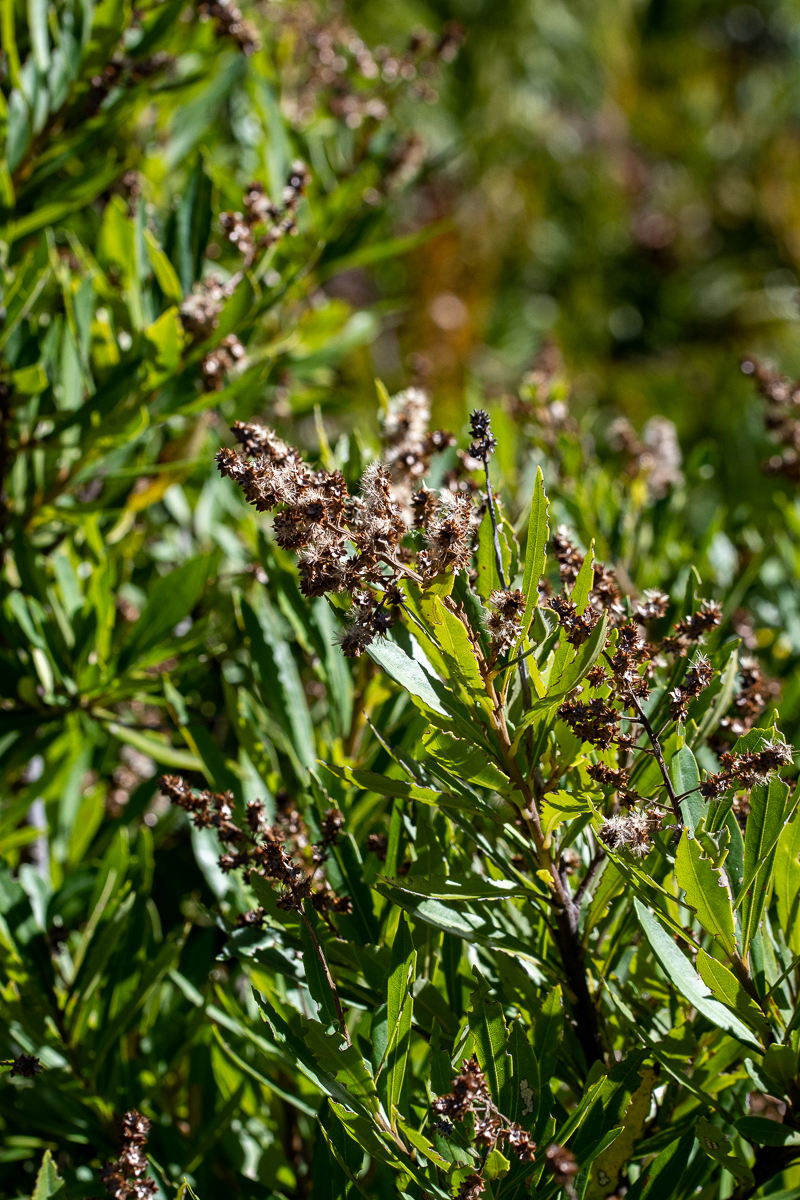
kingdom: Plantae
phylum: Tracheophyta
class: Magnoliopsida
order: Asterales
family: Asteraceae
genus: Brachylaena
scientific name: Brachylaena neriifolia
